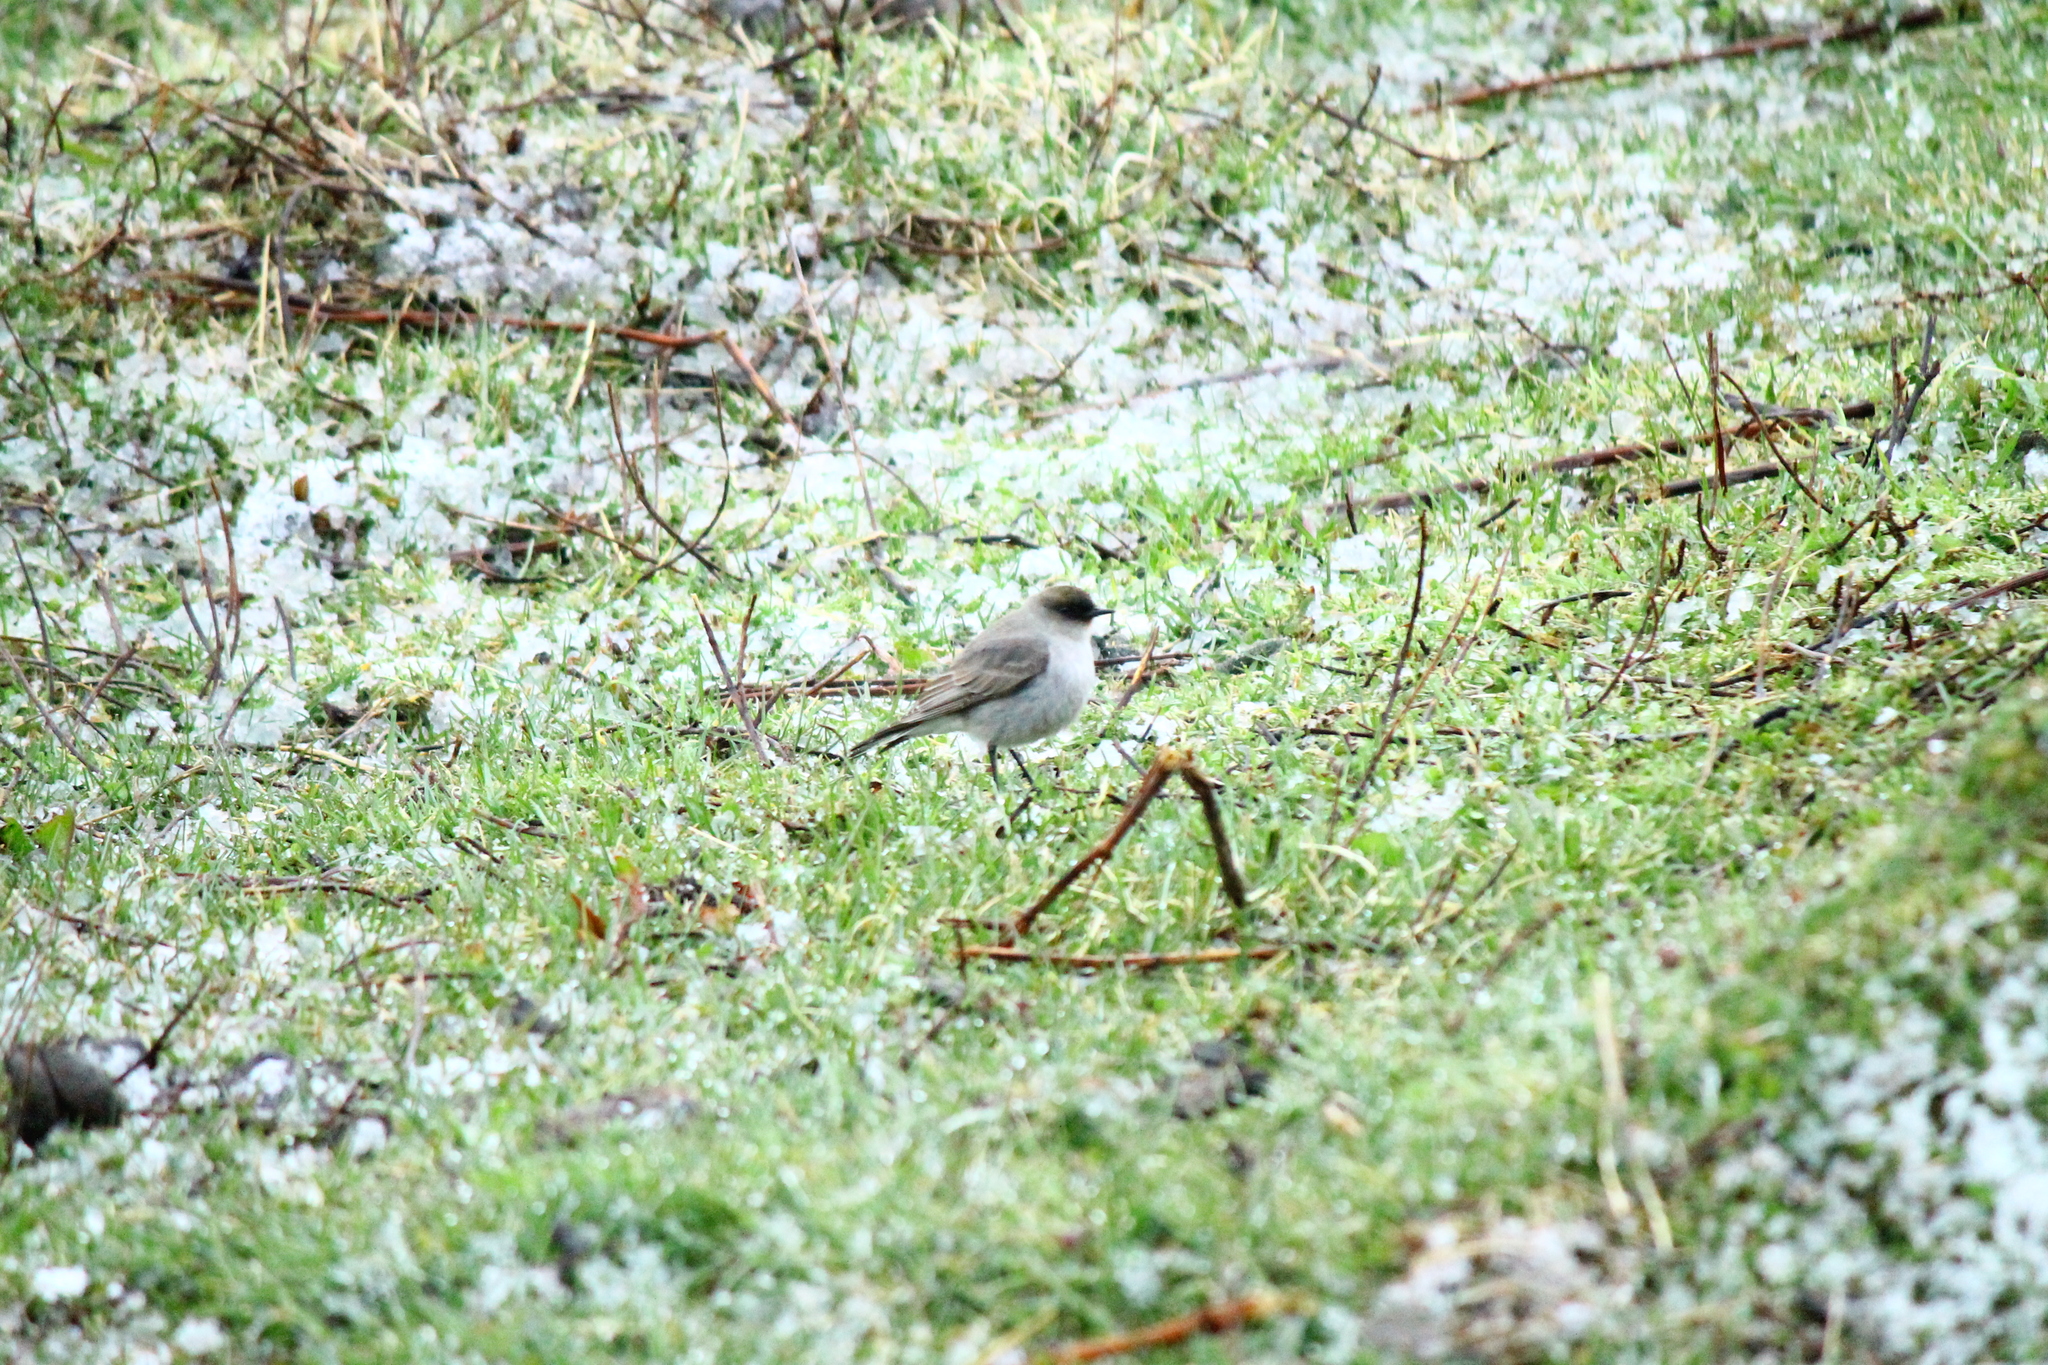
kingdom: Animalia
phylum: Chordata
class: Aves
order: Passeriformes
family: Tyrannidae
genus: Muscisaxicola
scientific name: Muscisaxicola maclovianus
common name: Dark-faced ground tyrant
